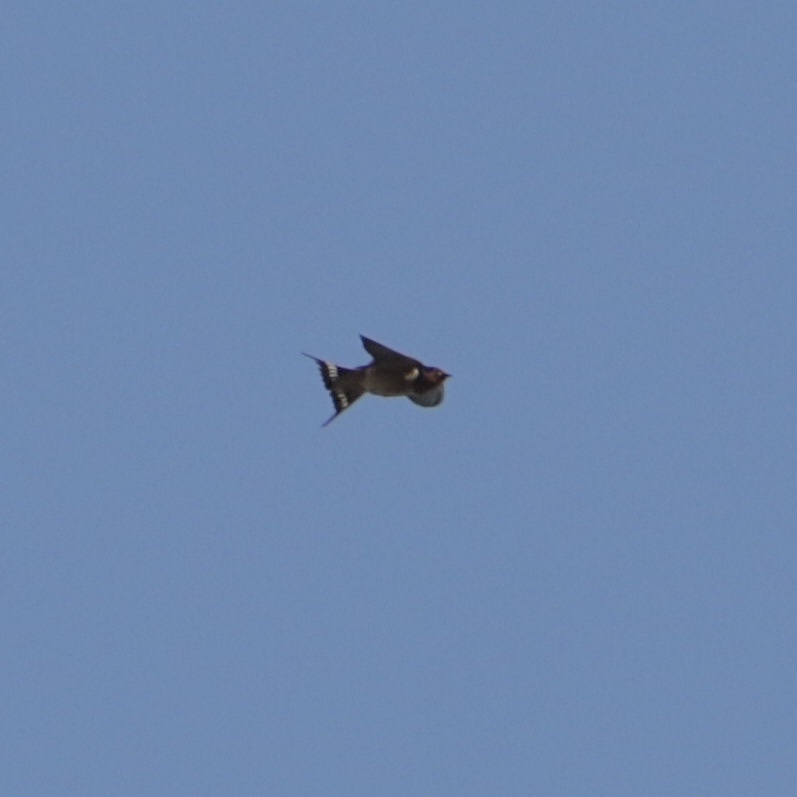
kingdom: Animalia
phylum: Chordata
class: Aves
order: Passeriformes
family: Hirundinidae
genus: Hirundo
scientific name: Hirundo rustica
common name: Barn swallow
